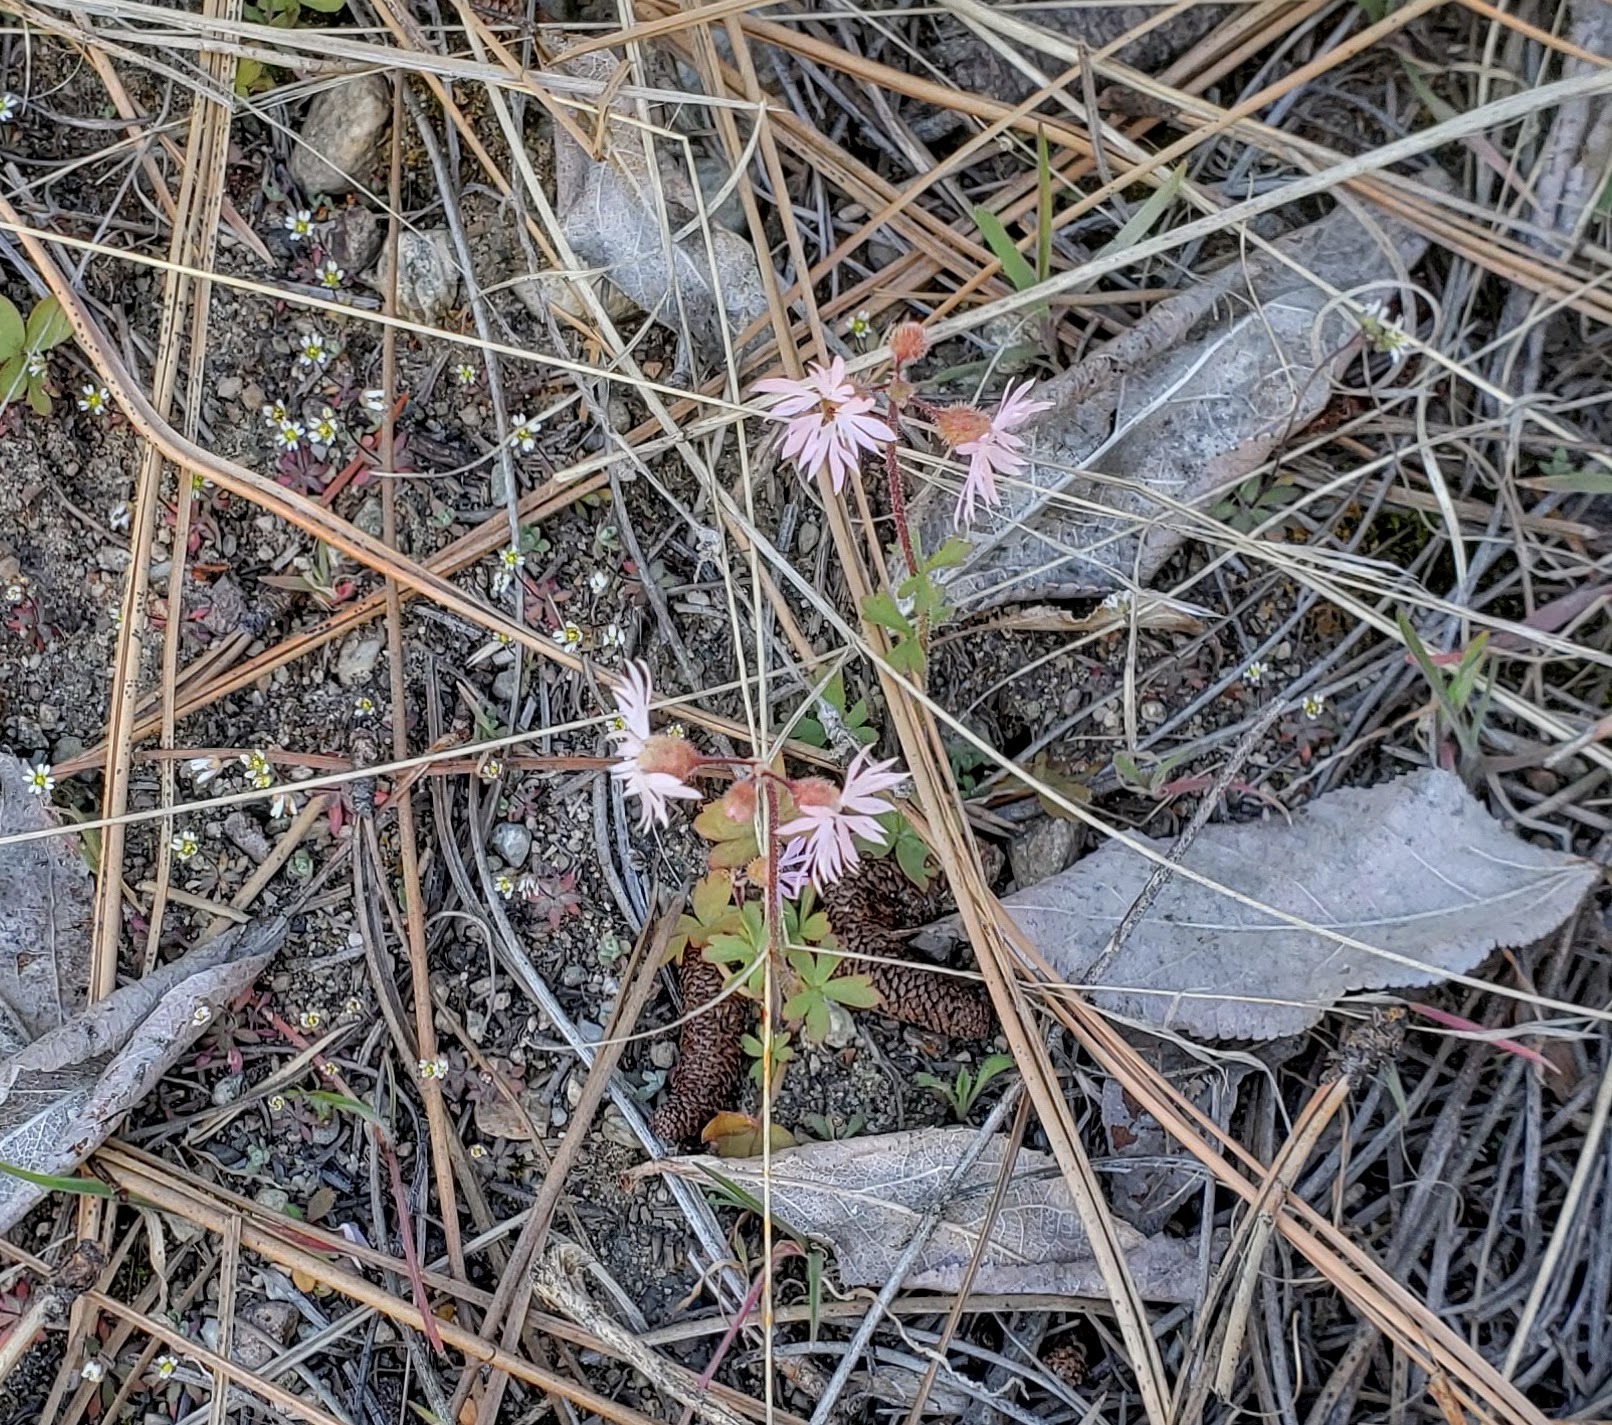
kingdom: Plantae
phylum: Tracheophyta
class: Magnoliopsida
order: Saxifragales
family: Saxifragaceae
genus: Lithophragma
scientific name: Lithophragma glabrum
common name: Bulbous prairie-star
